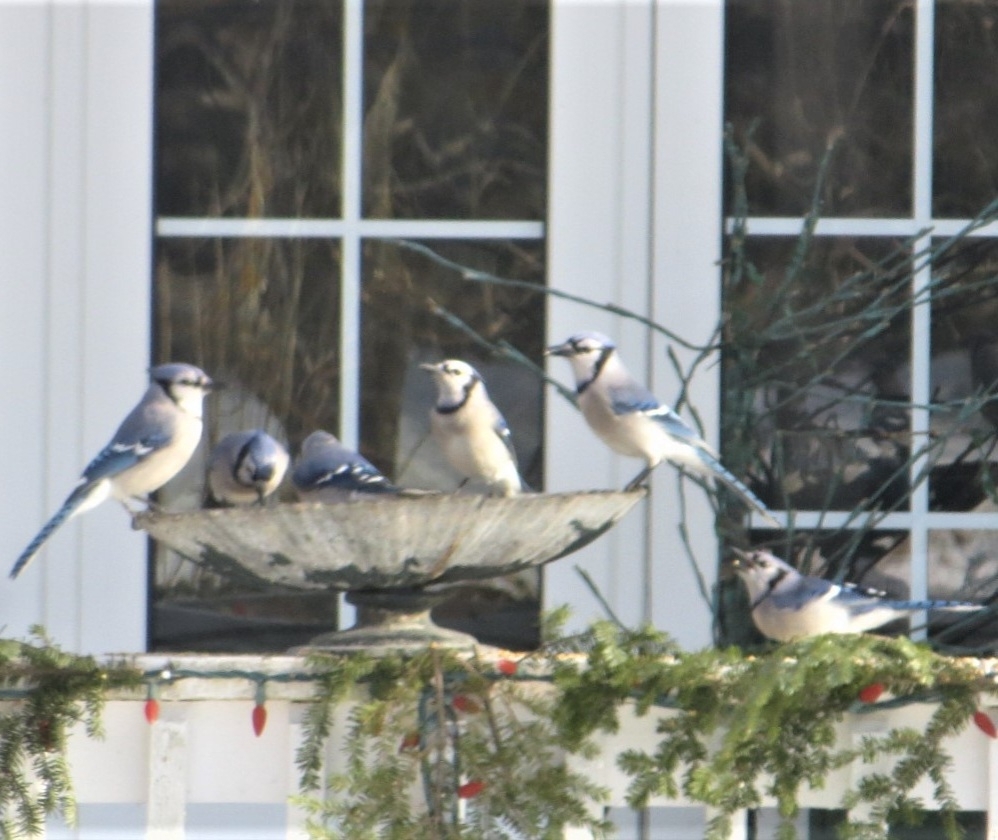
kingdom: Animalia
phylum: Chordata
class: Aves
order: Passeriformes
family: Corvidae
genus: Cyanocitta
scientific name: Cyanocitta cristata
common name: Blue jay
